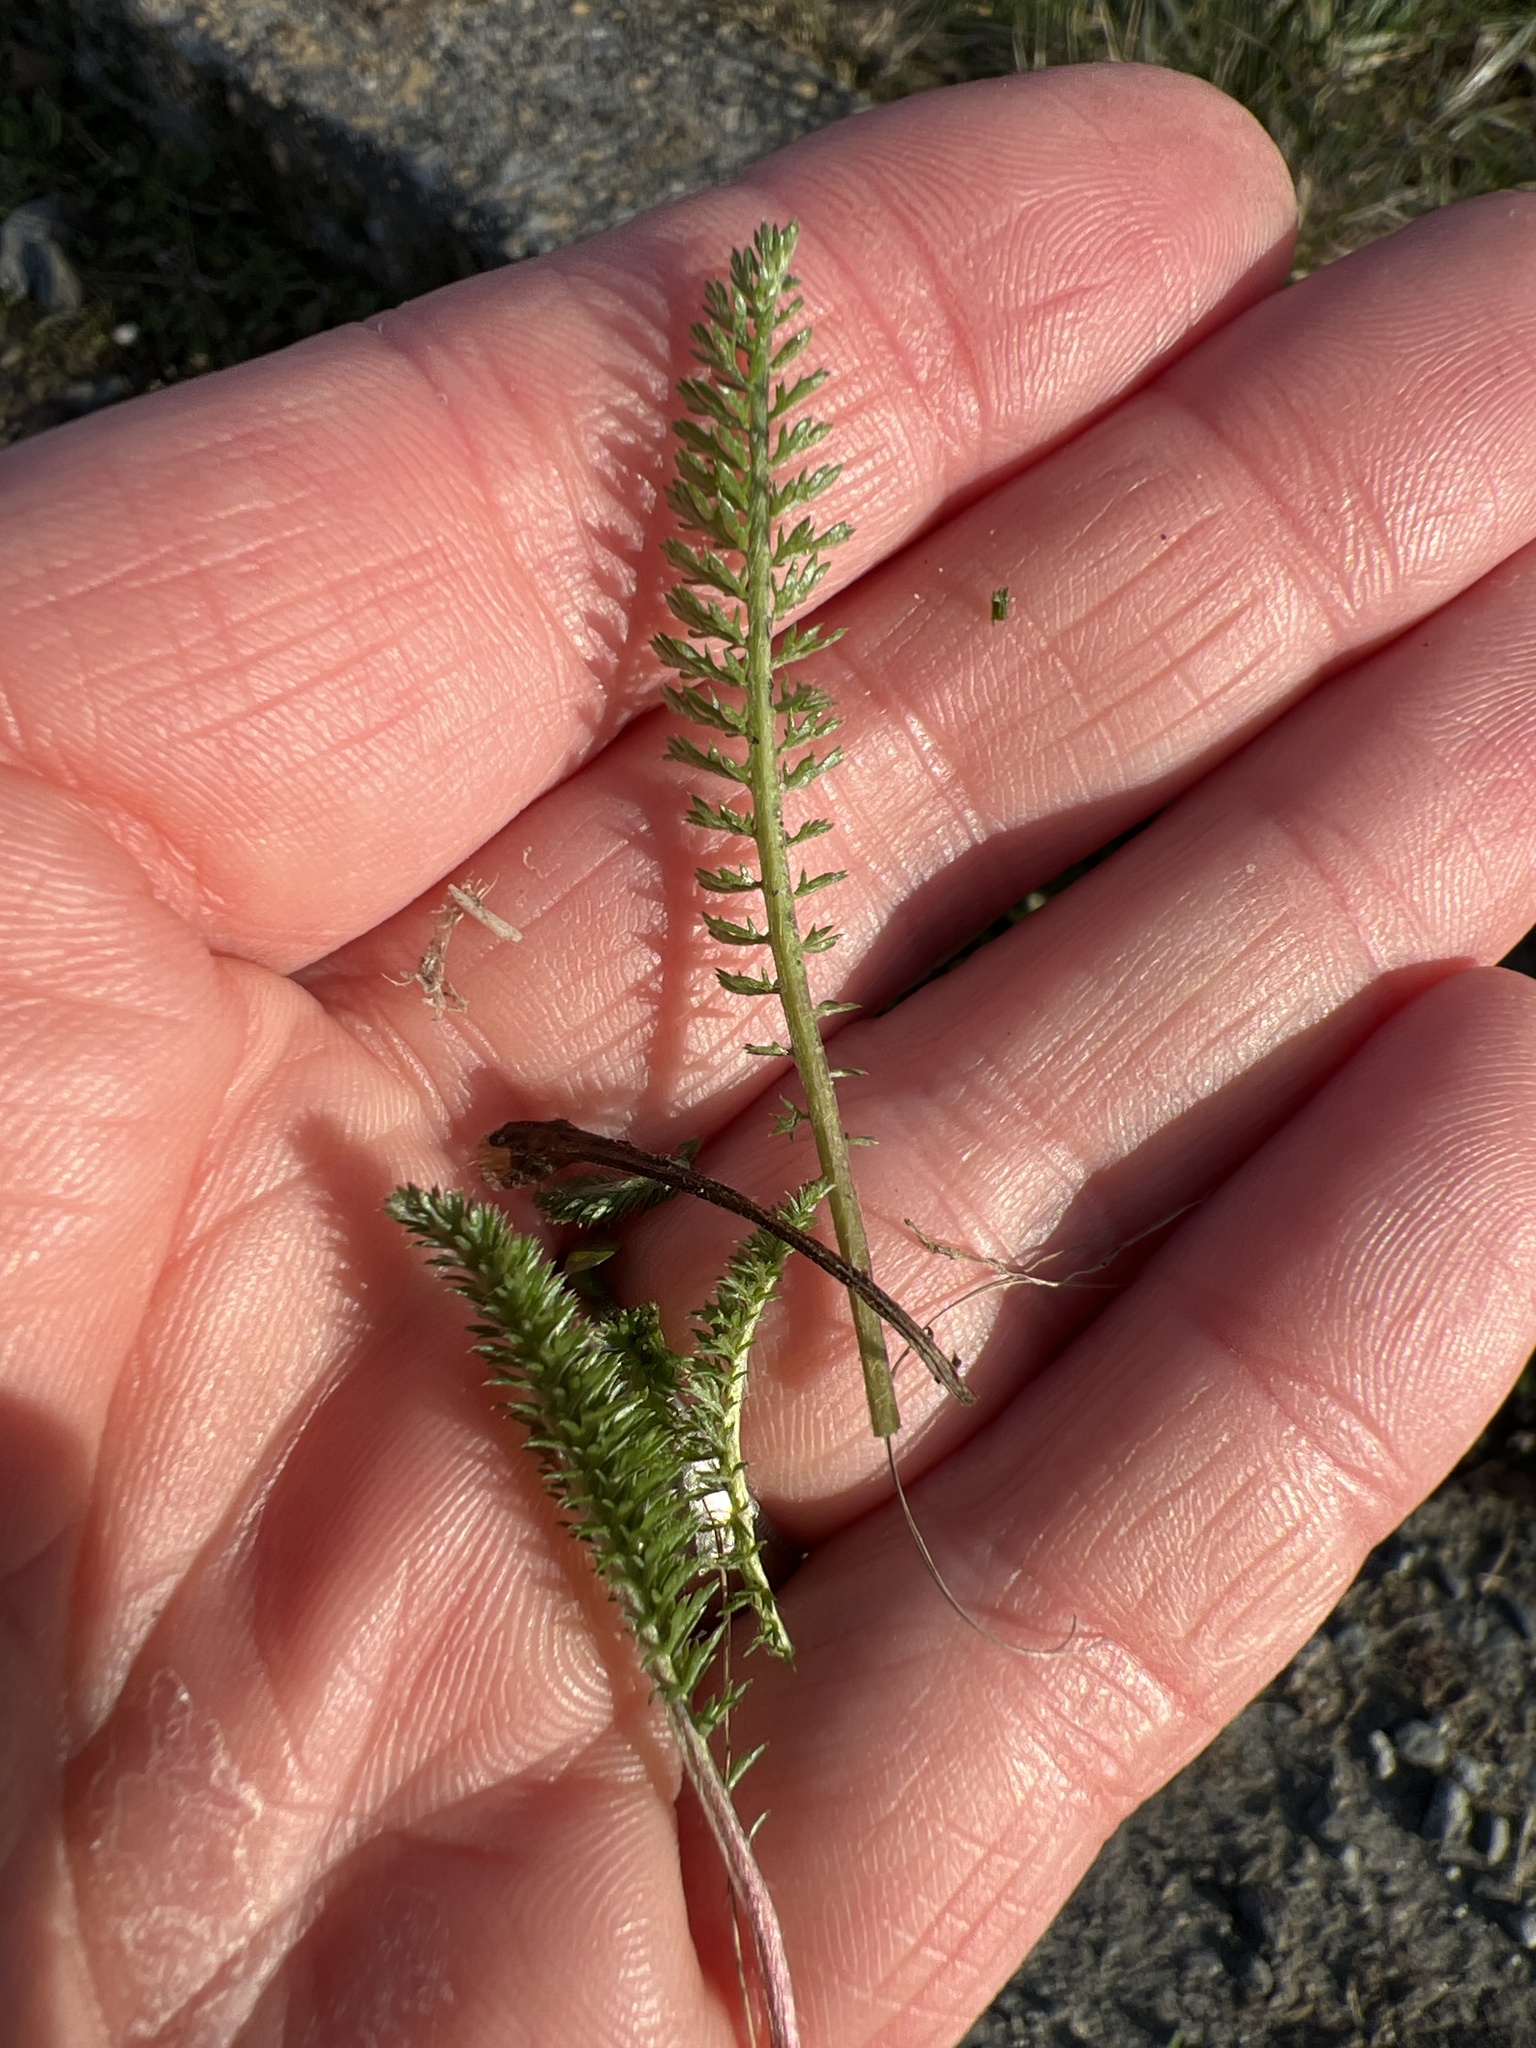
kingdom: Plantae
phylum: Tracheophyta
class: Magnoliopsida
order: Asterales
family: Asteraceae
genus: Achillea
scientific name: Achillea millefolium
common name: Yarrow
